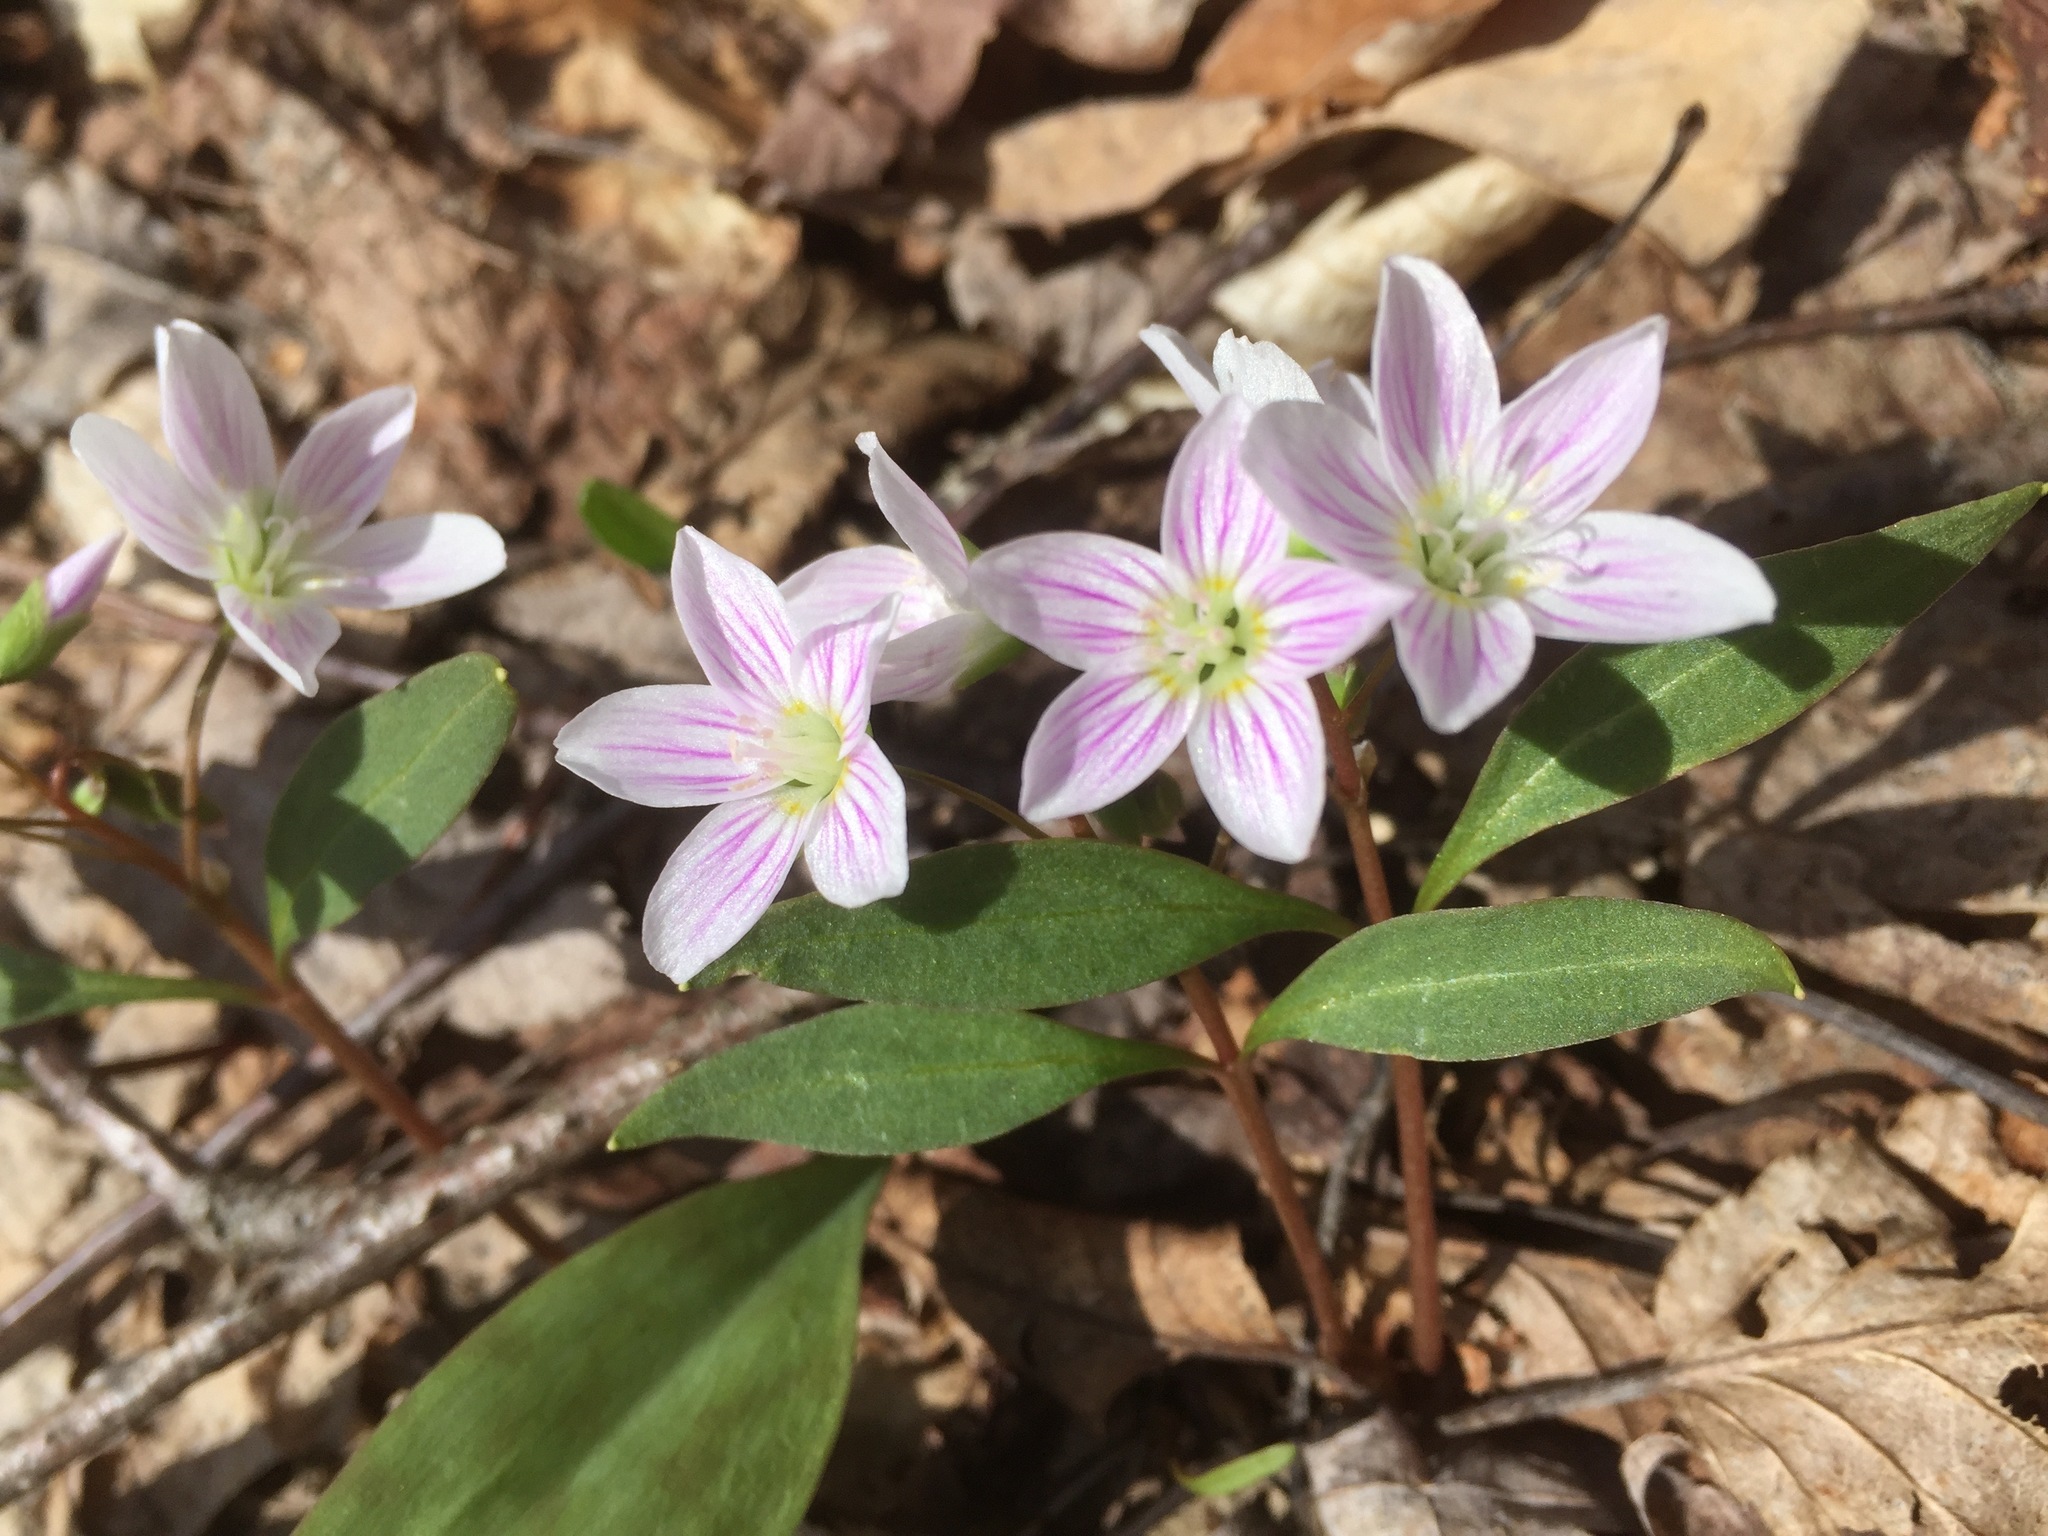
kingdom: Plantae
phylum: Tracheophyta
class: Magnoliopsida
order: Caryophyllales
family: Montiaceae
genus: Claytonia
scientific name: Claytonia caroliniana
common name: Carolina spring beauty
